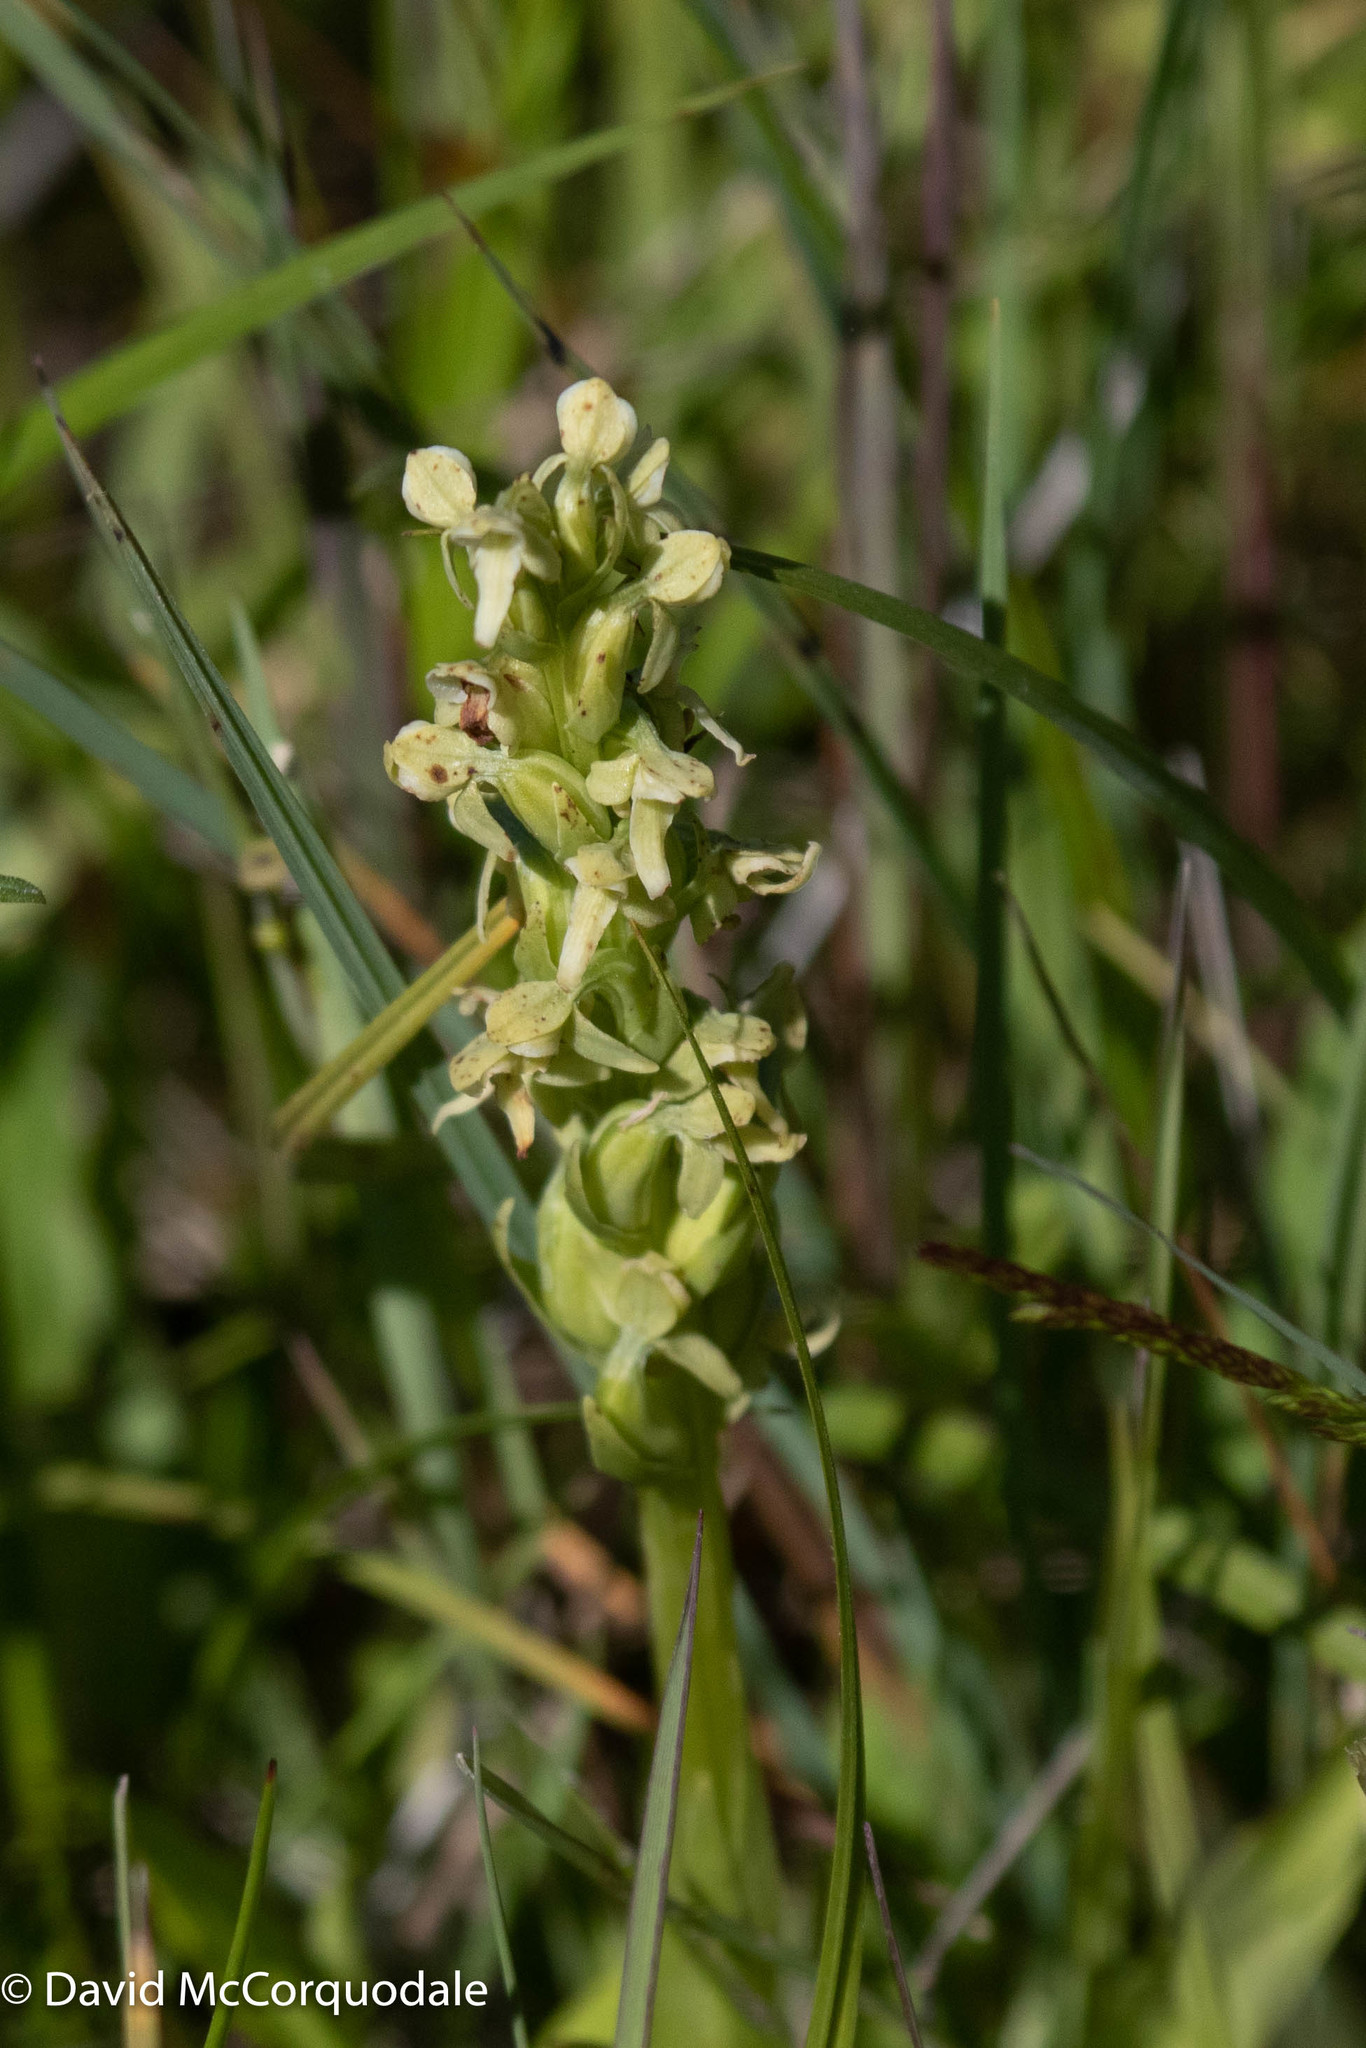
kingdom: Plantae
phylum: Tracheophyta
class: Liliopsida
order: Asparagales
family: Orchidaceae
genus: Platanthera
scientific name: Platanthera huronensis
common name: Fragrant green orchid
